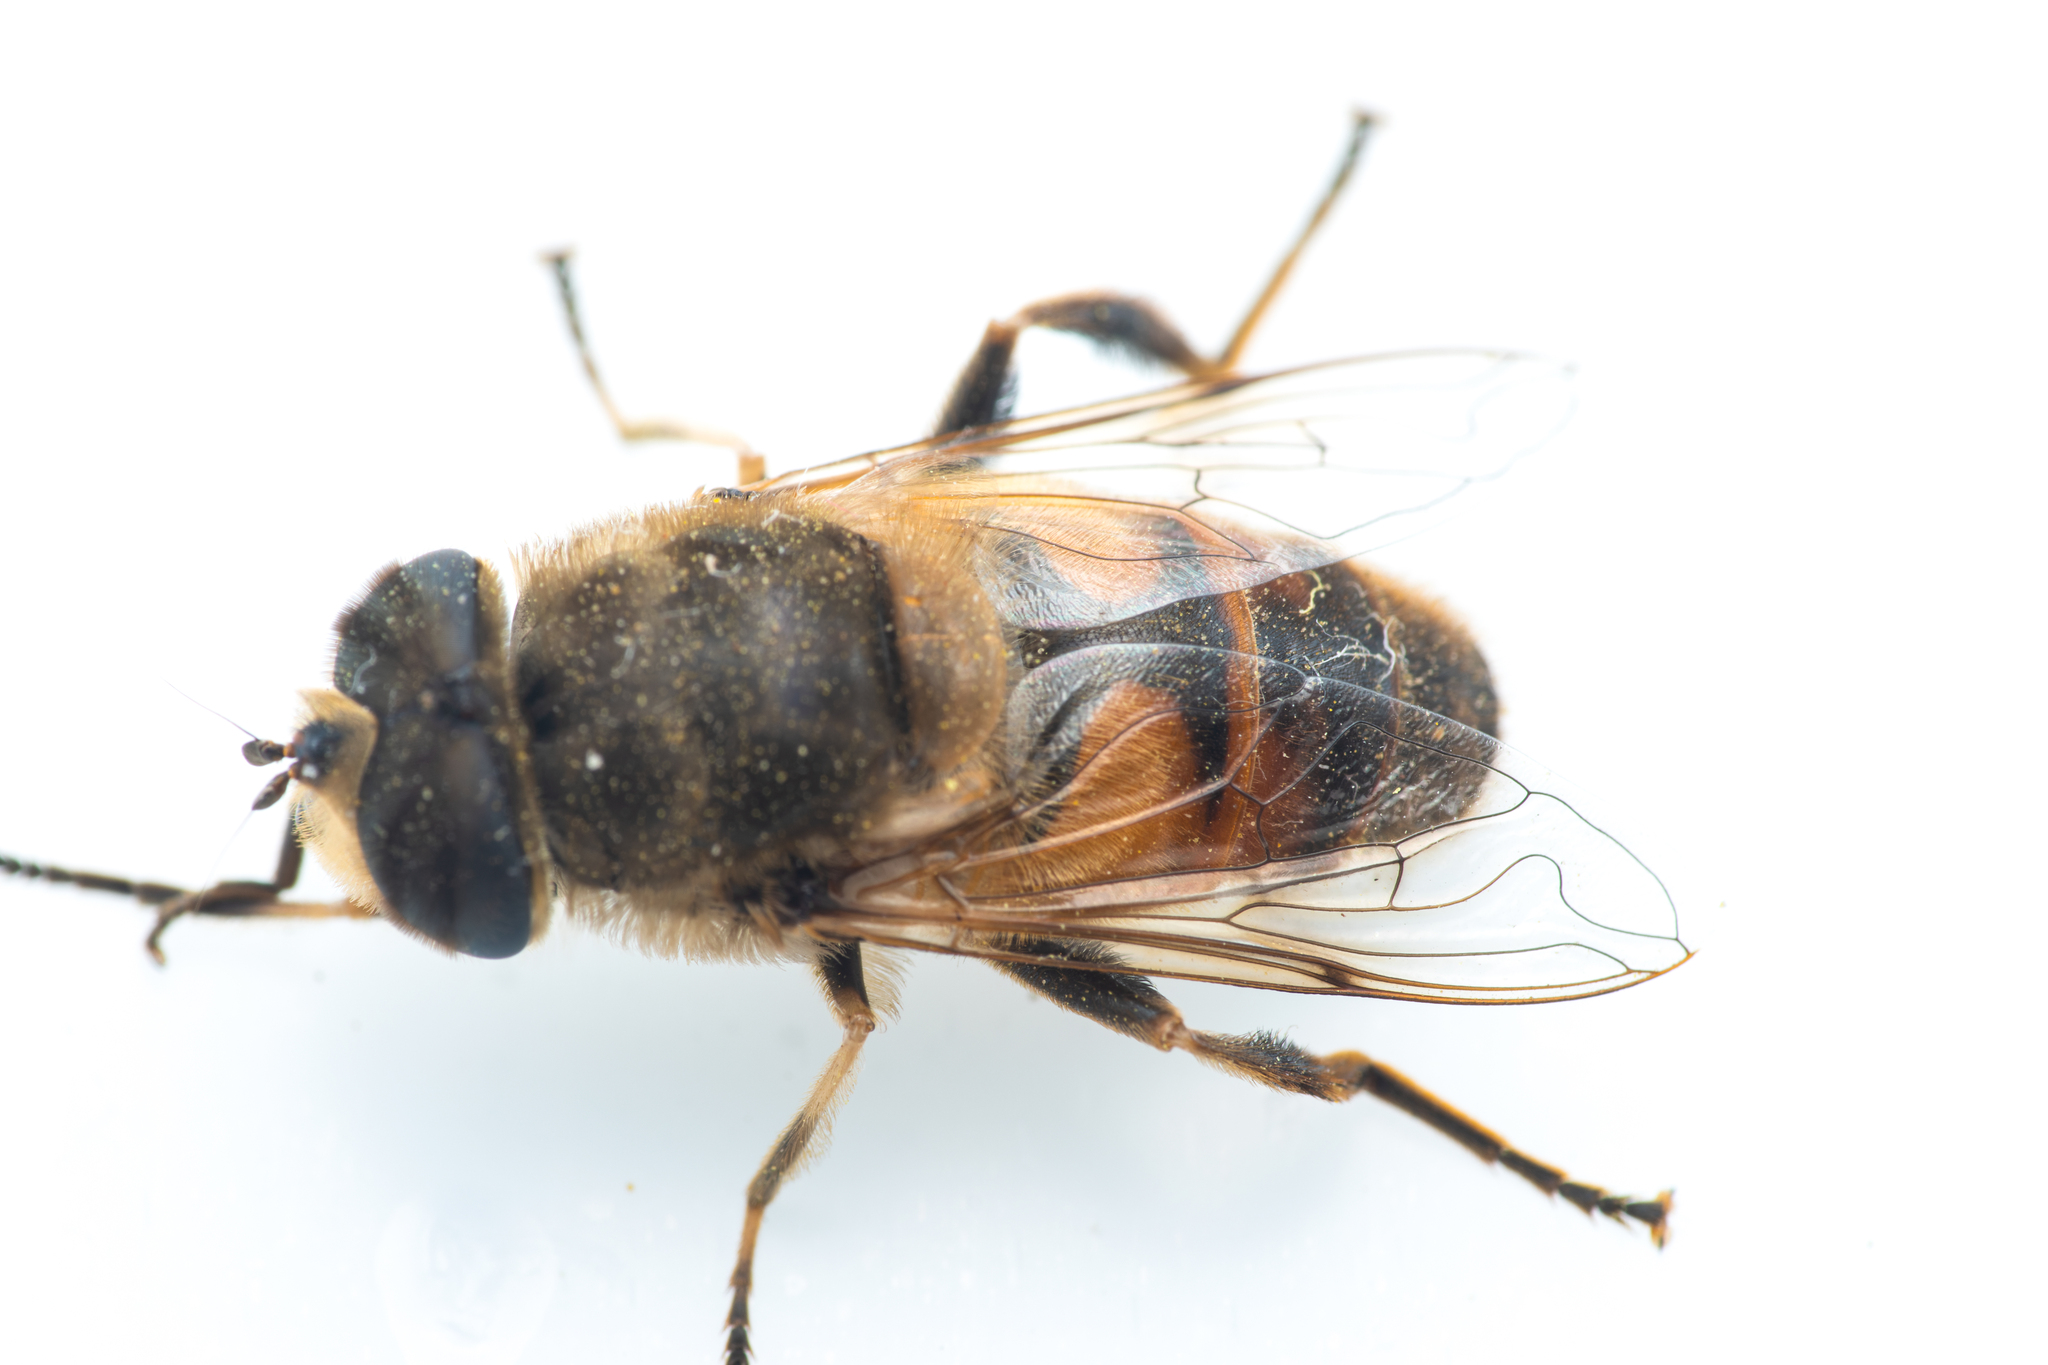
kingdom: Animalia
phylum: Arthropoda
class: Insecta
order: Diptera
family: Syrphidae
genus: Eristalis
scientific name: Eristalis tenax
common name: Drone fly
